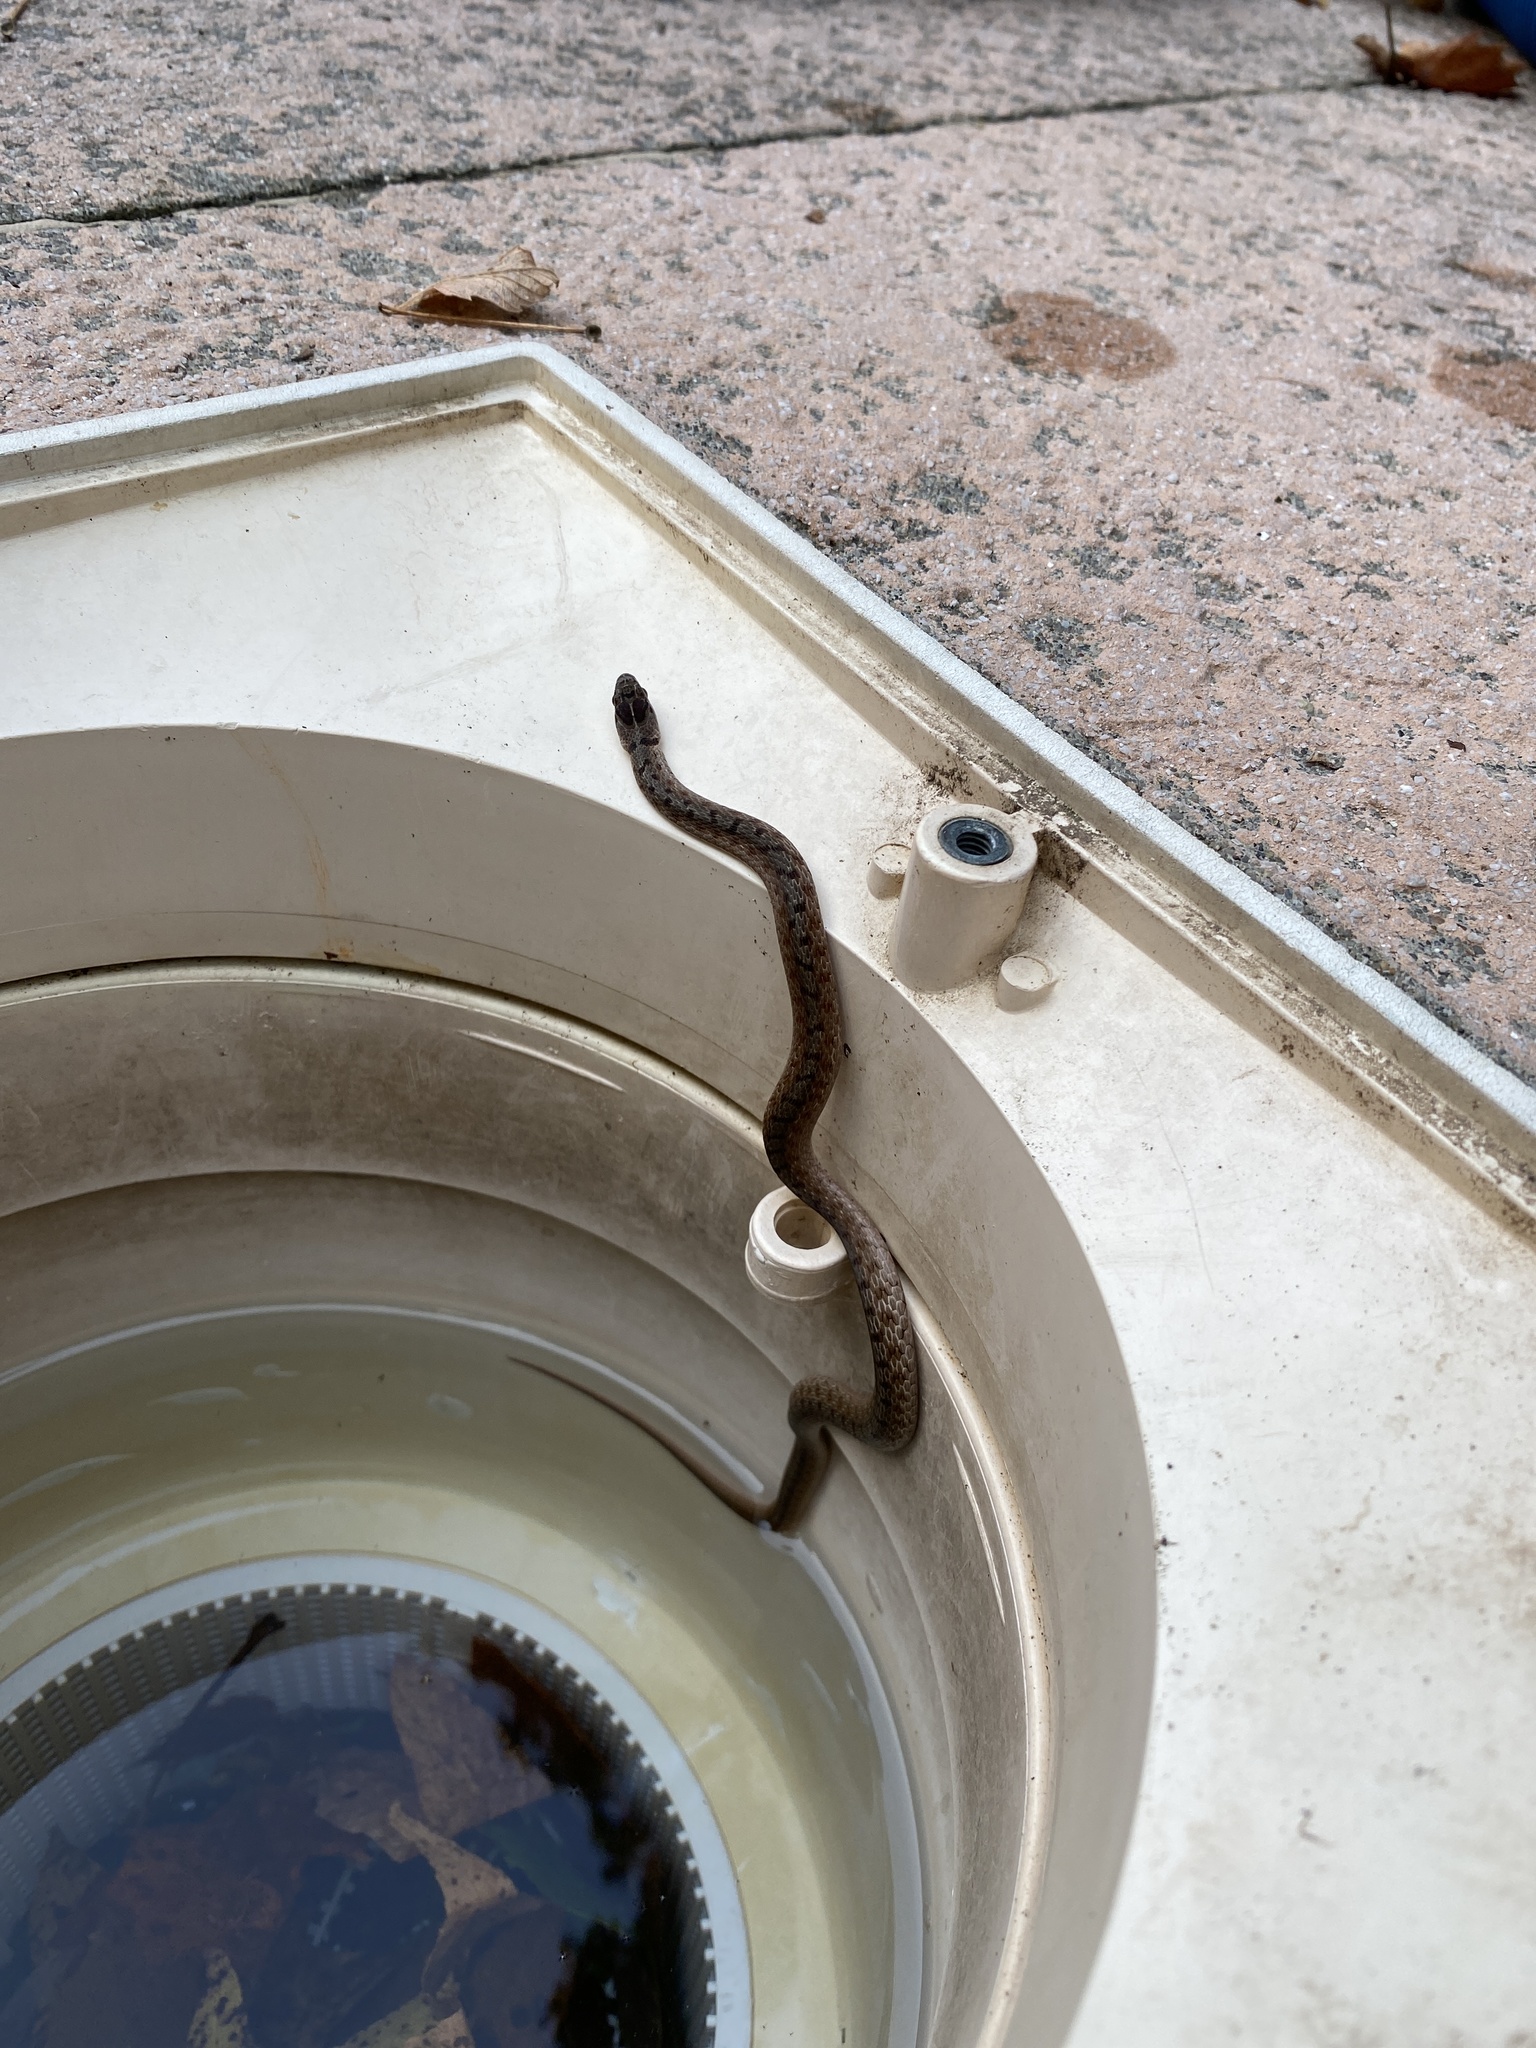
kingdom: Animalia
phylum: Chordata
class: Squamata
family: Colubridae
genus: Storeria
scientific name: Storeria dekayi
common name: (dekay’s) brown snake
